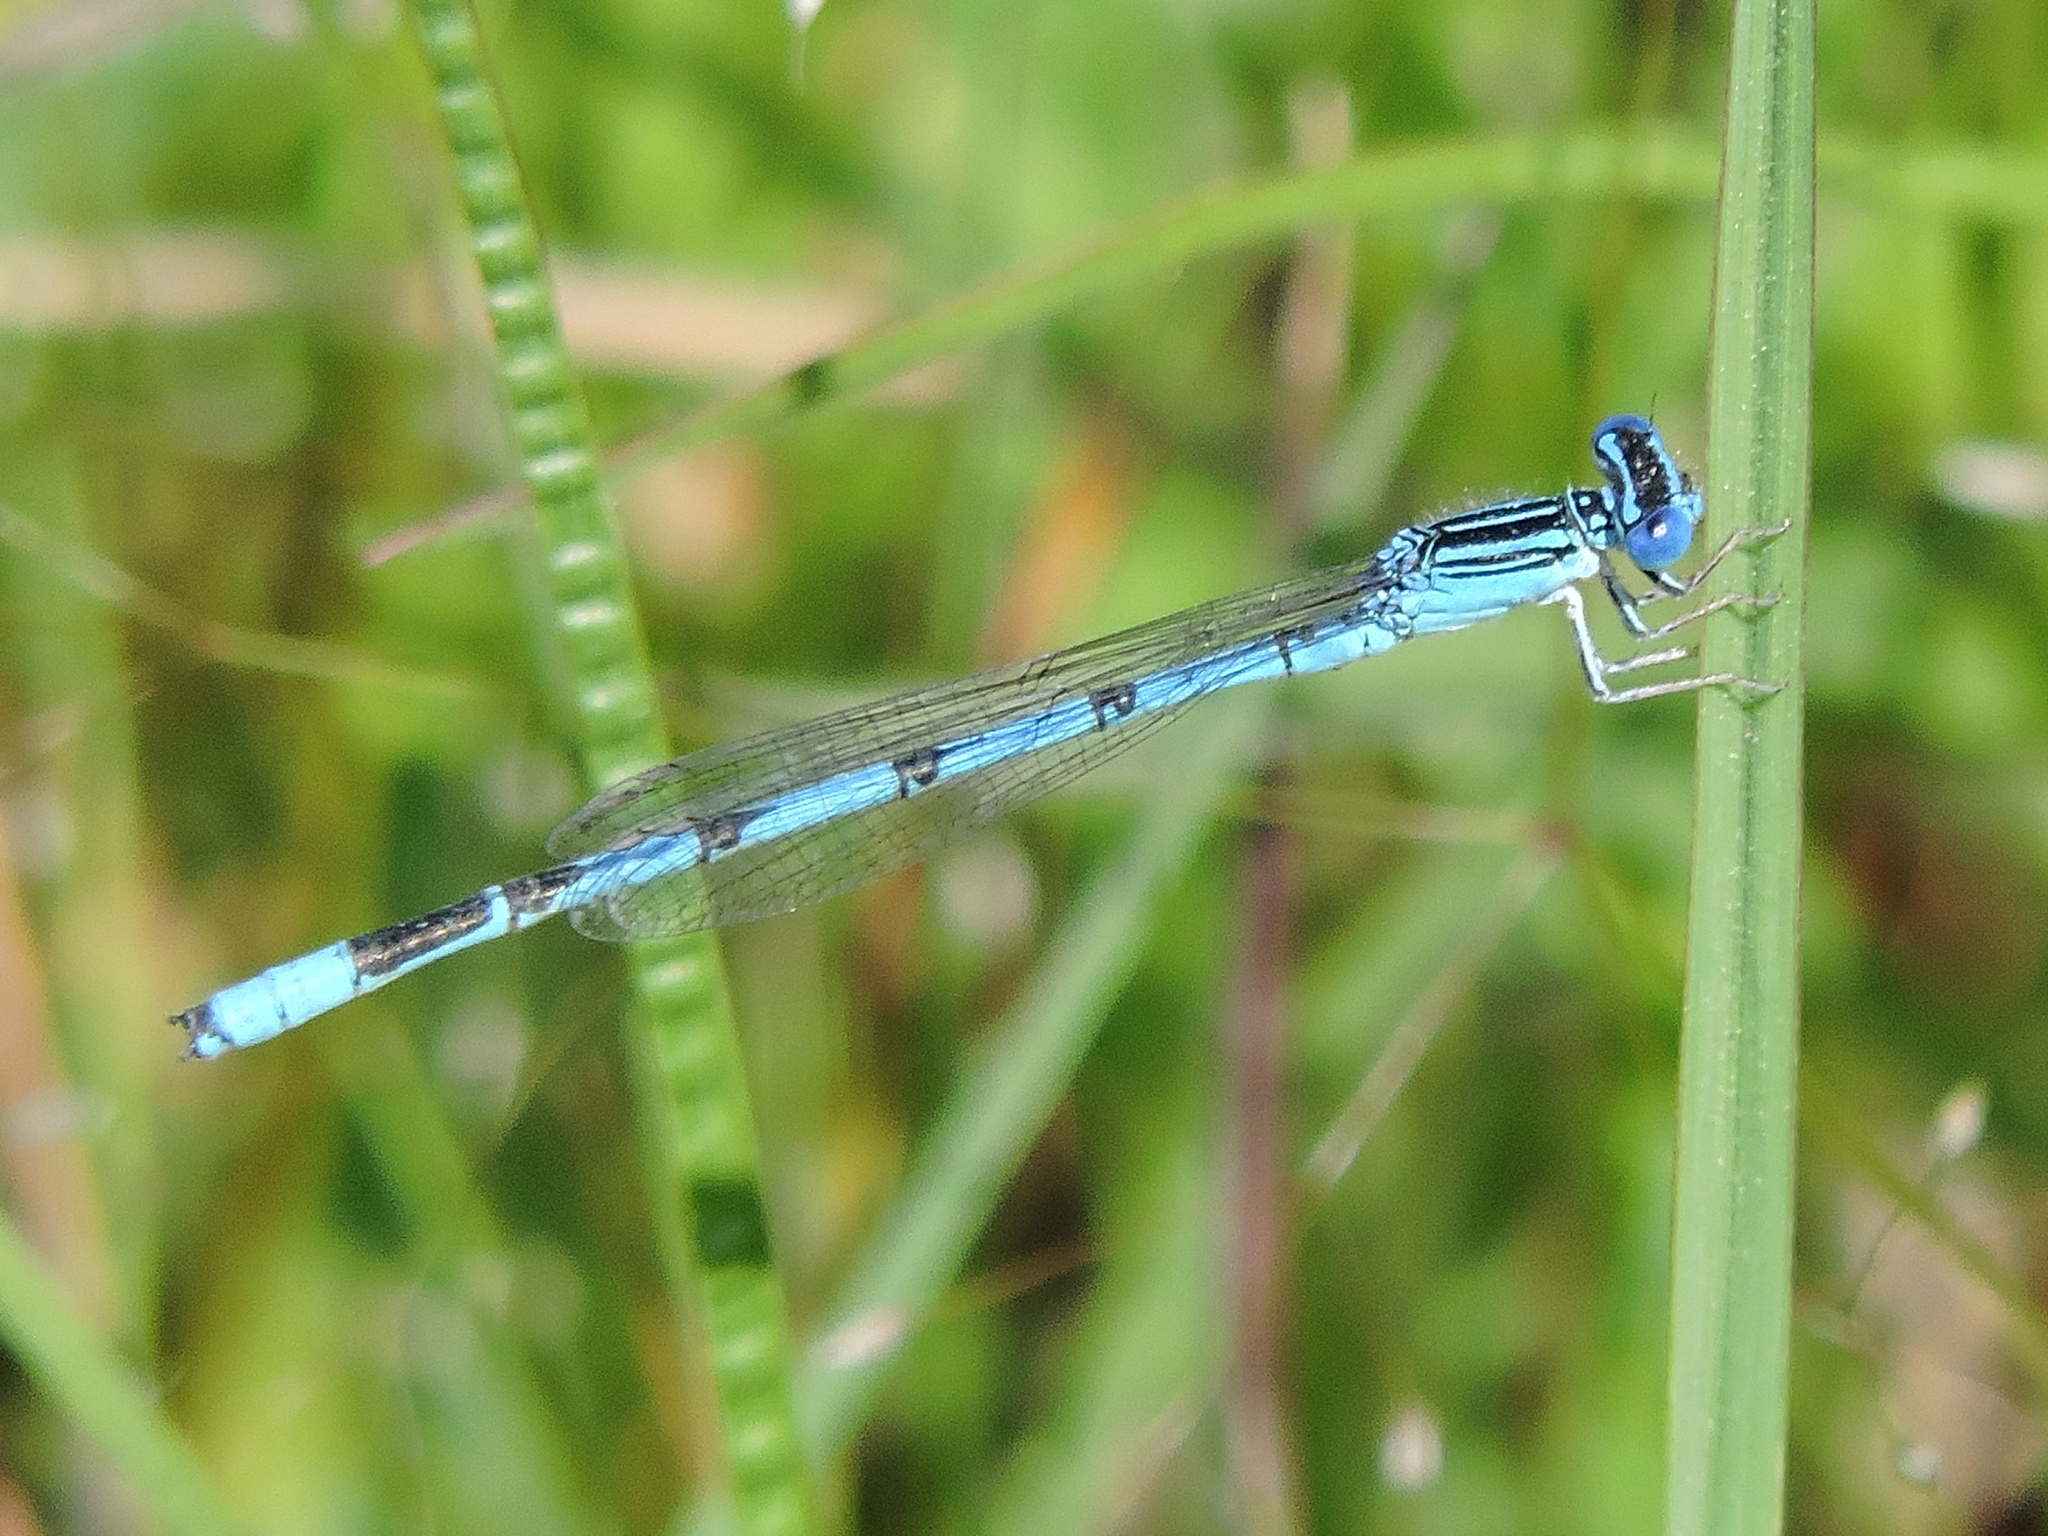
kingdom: Animalia
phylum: Arthropoda
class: Insecta
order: Odonata
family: Coenagrionidae
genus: Enallagma
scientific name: Enallagma basidens
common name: Double-striped bluet
